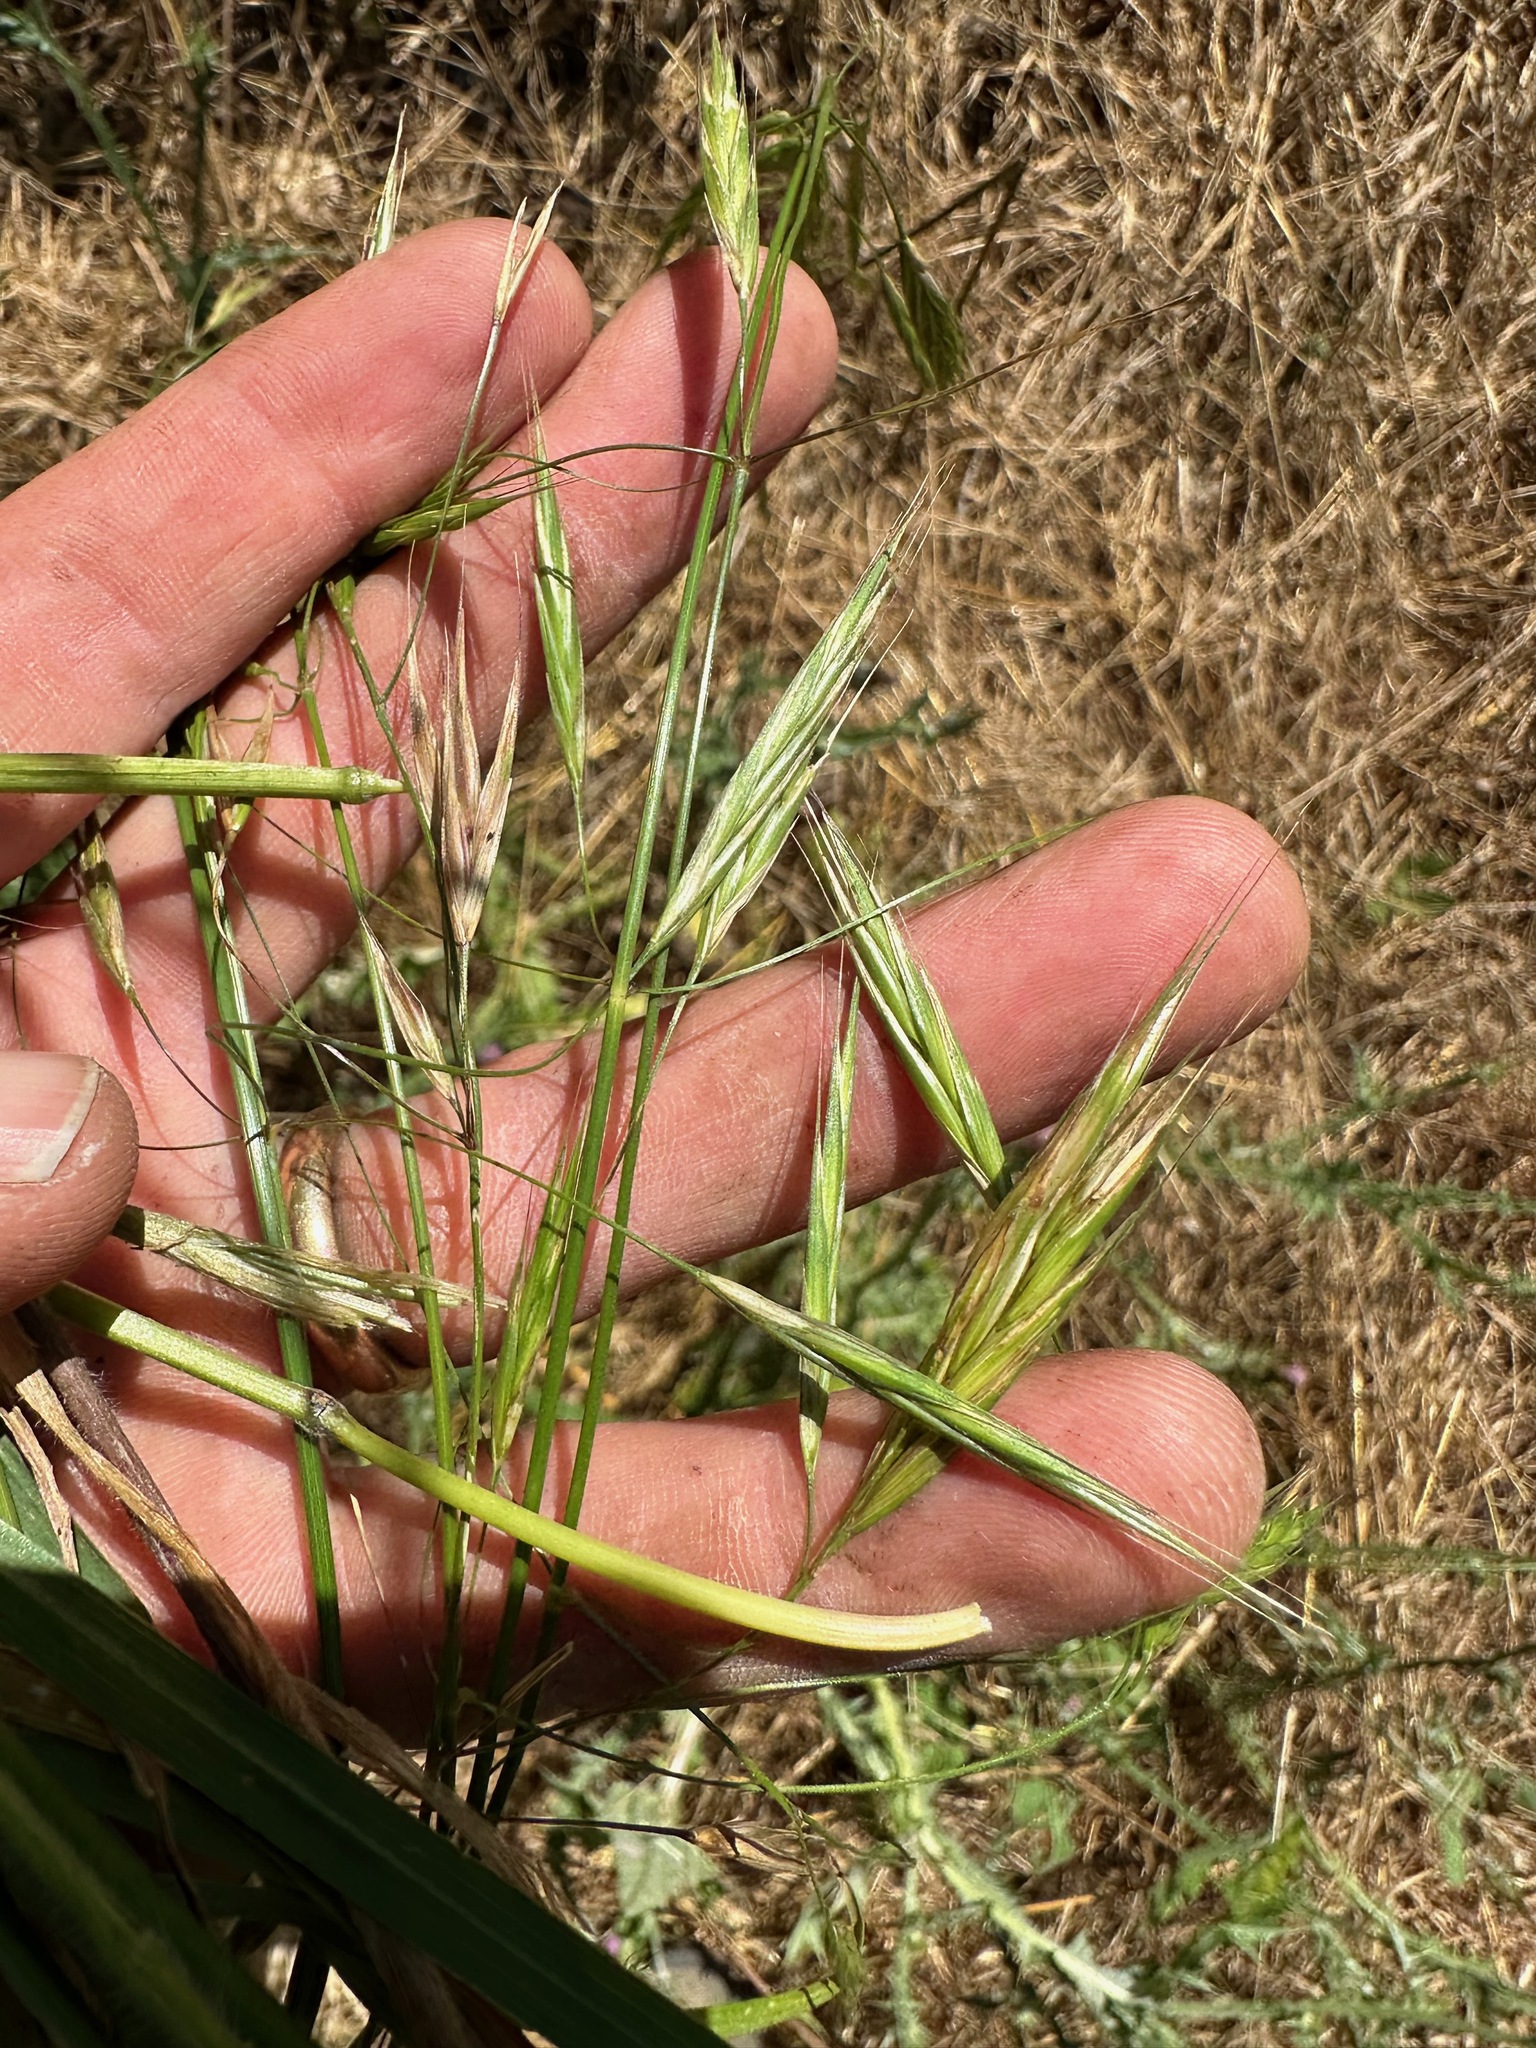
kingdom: Plantae
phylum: Tracheophyta
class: Liliopsida
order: Poales
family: Poaceae
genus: Bromus
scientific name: Bromus carinatus
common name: Mountain brome
